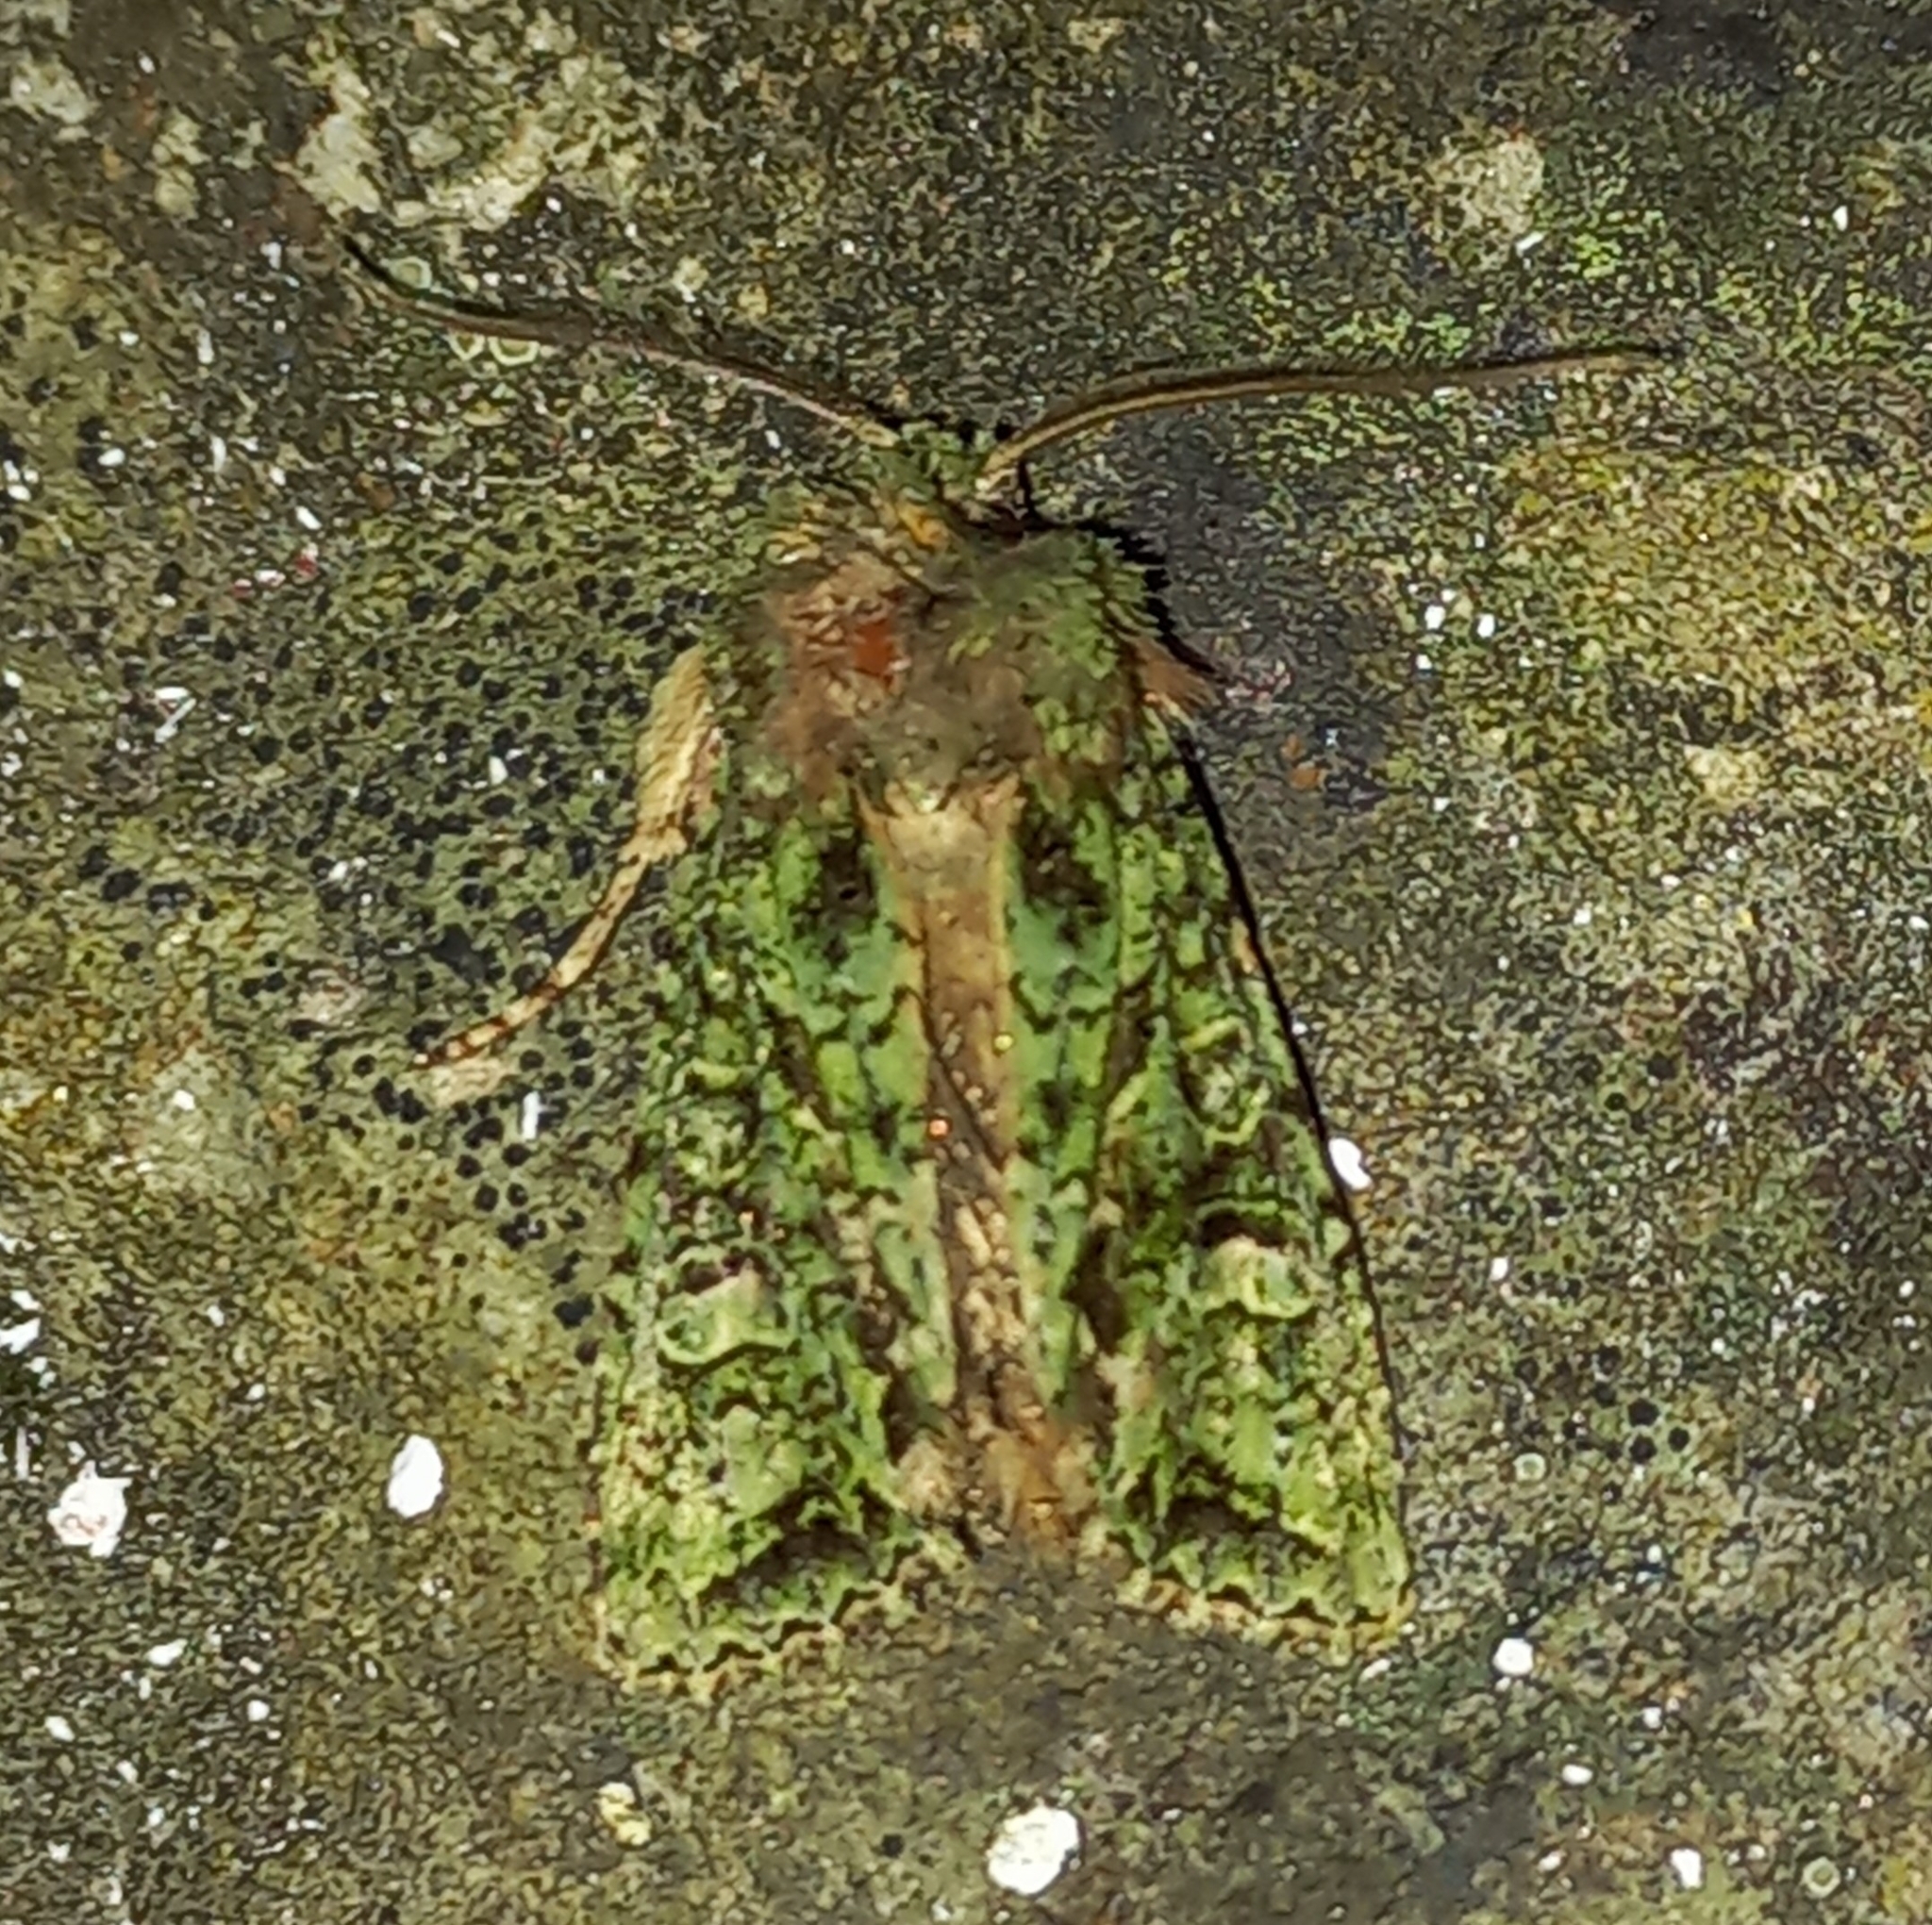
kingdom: Animalia
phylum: Arthropoda
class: Insecta
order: Lepidoptera
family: Noctuidae
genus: Ichneutica
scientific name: Ichneutica
